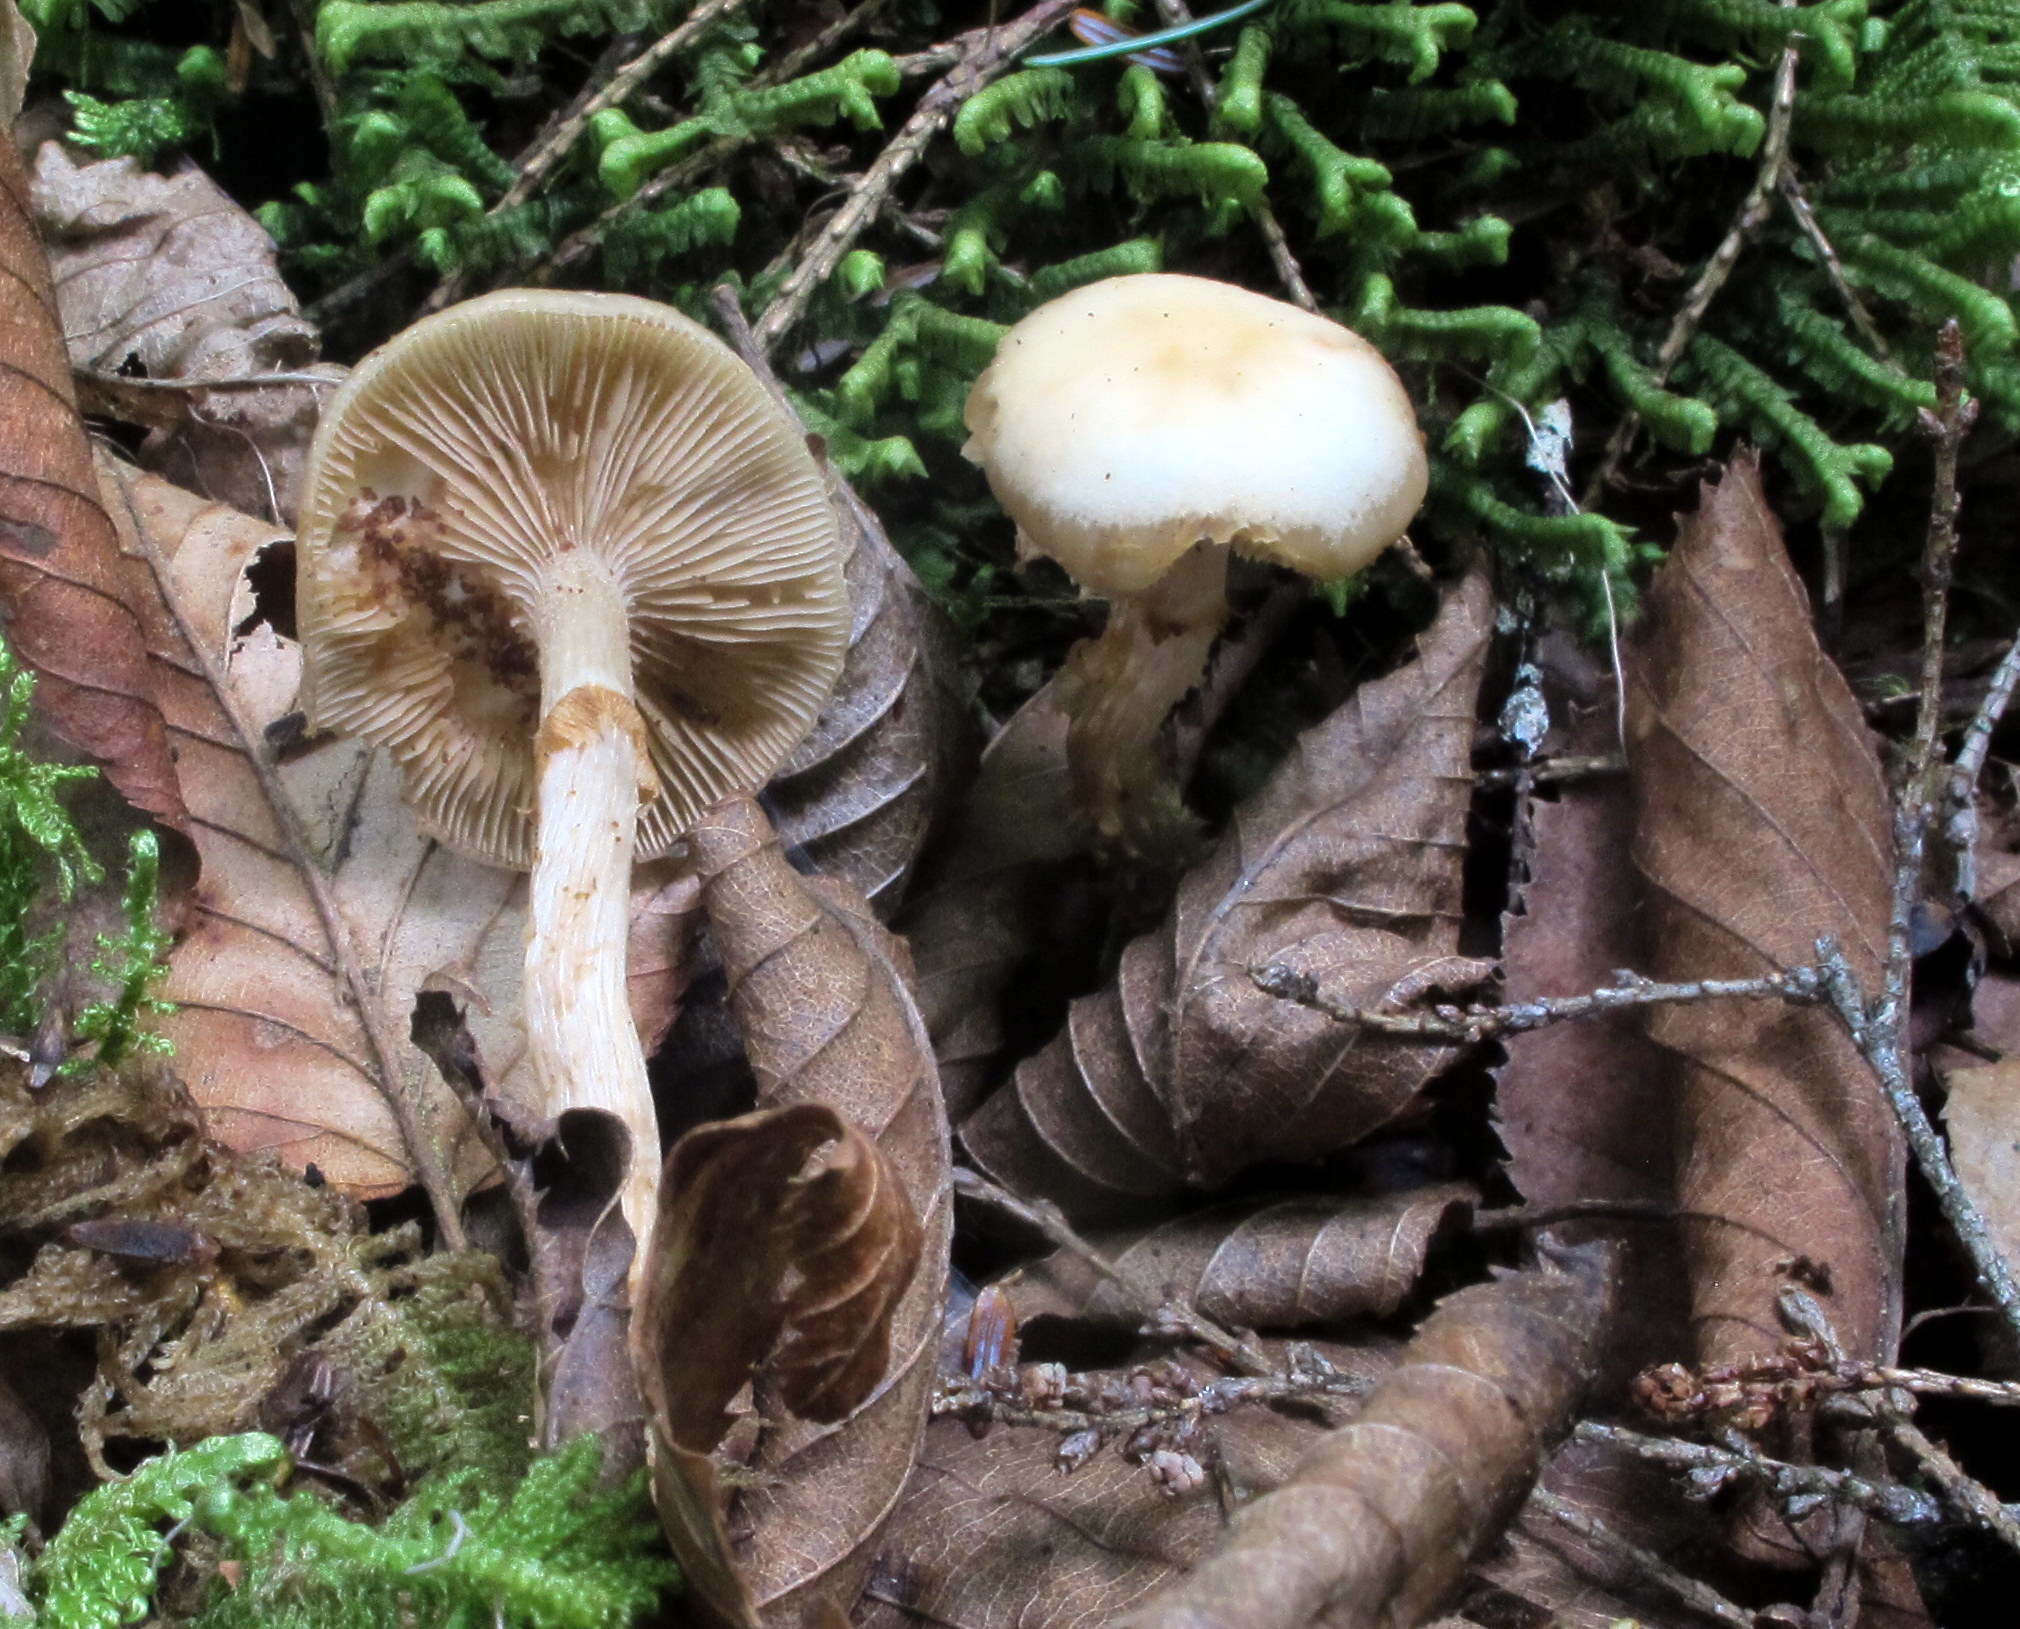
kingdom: Fungi
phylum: Basidiomycota
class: Agaricomycetes
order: Agaricales
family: Strophariaceae
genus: Kuehneromyces
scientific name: Kuehneromyces marginellus
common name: Sheathed woodtuft
